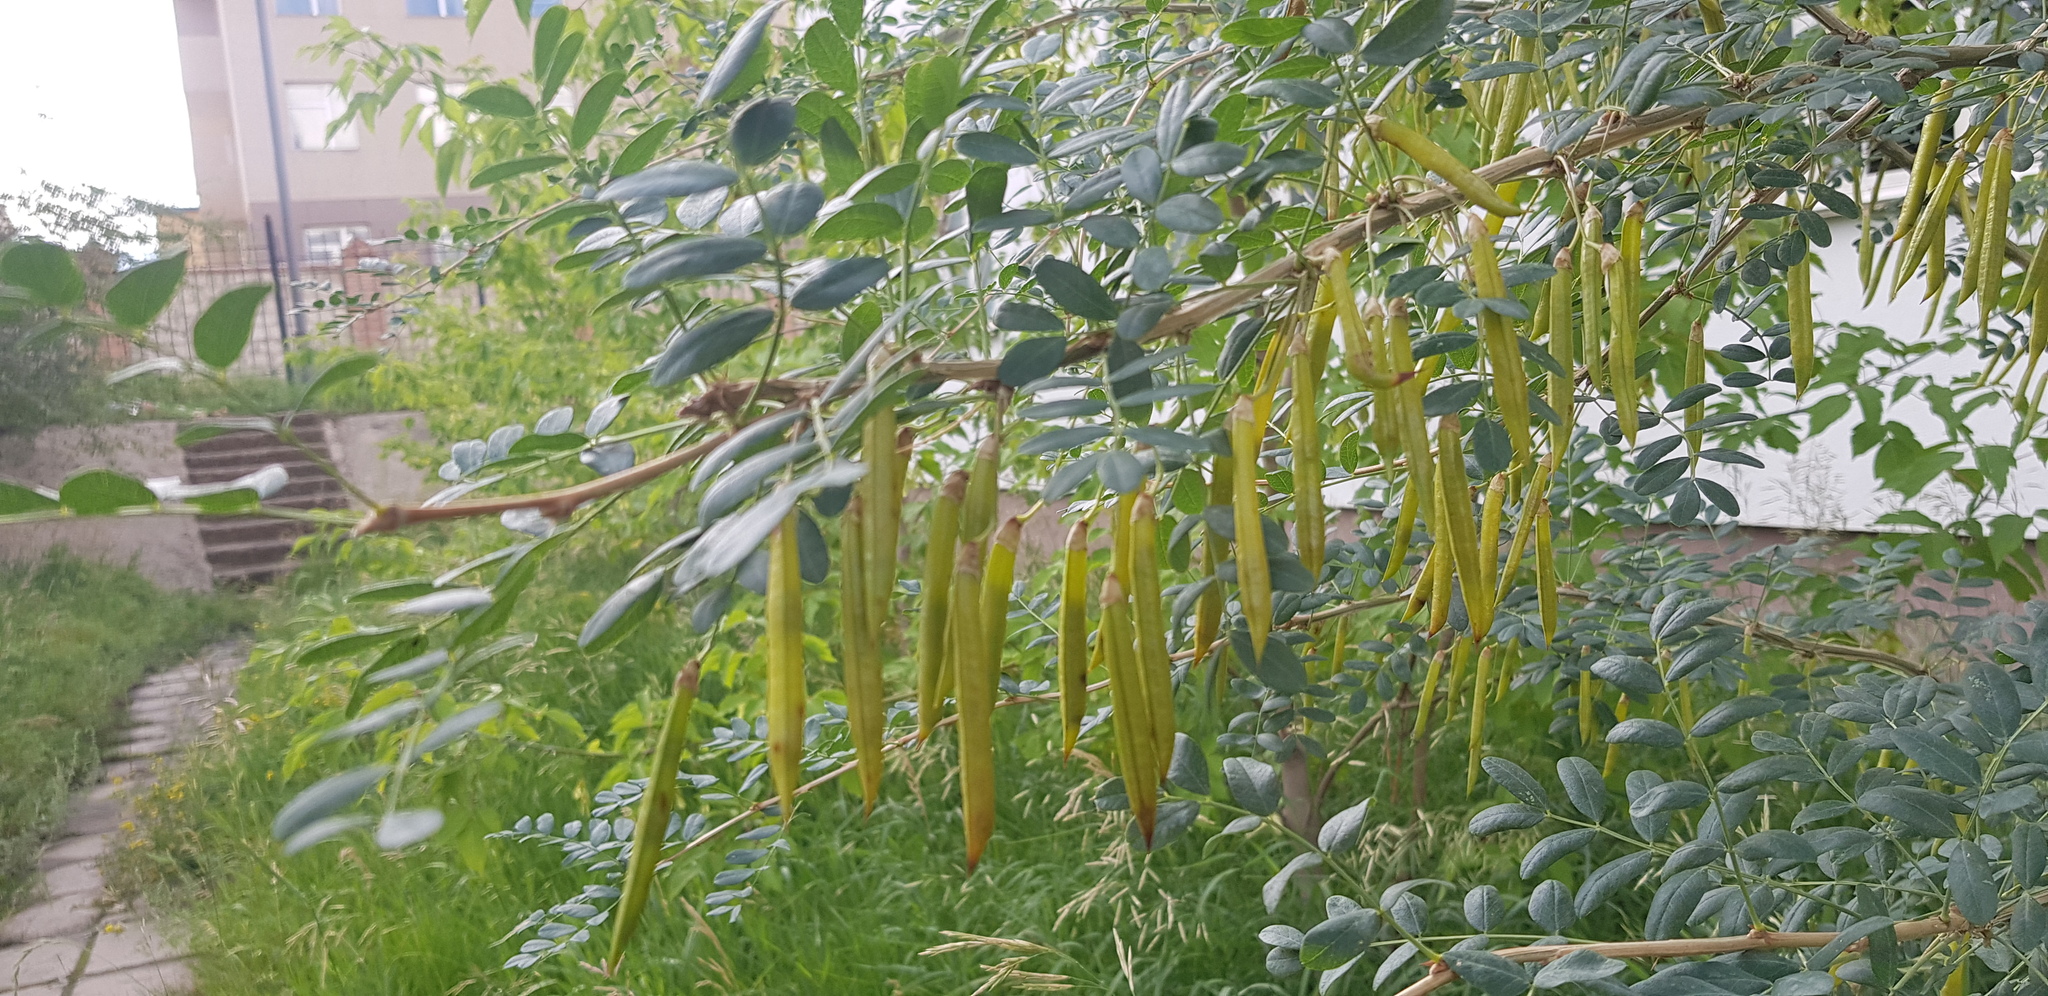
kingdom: Plantae
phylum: Tracheophyta
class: Magnoliopsida
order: Fabales
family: Fabaceae
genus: Caragana
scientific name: Caragana arborescens
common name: Siberian peashrub
